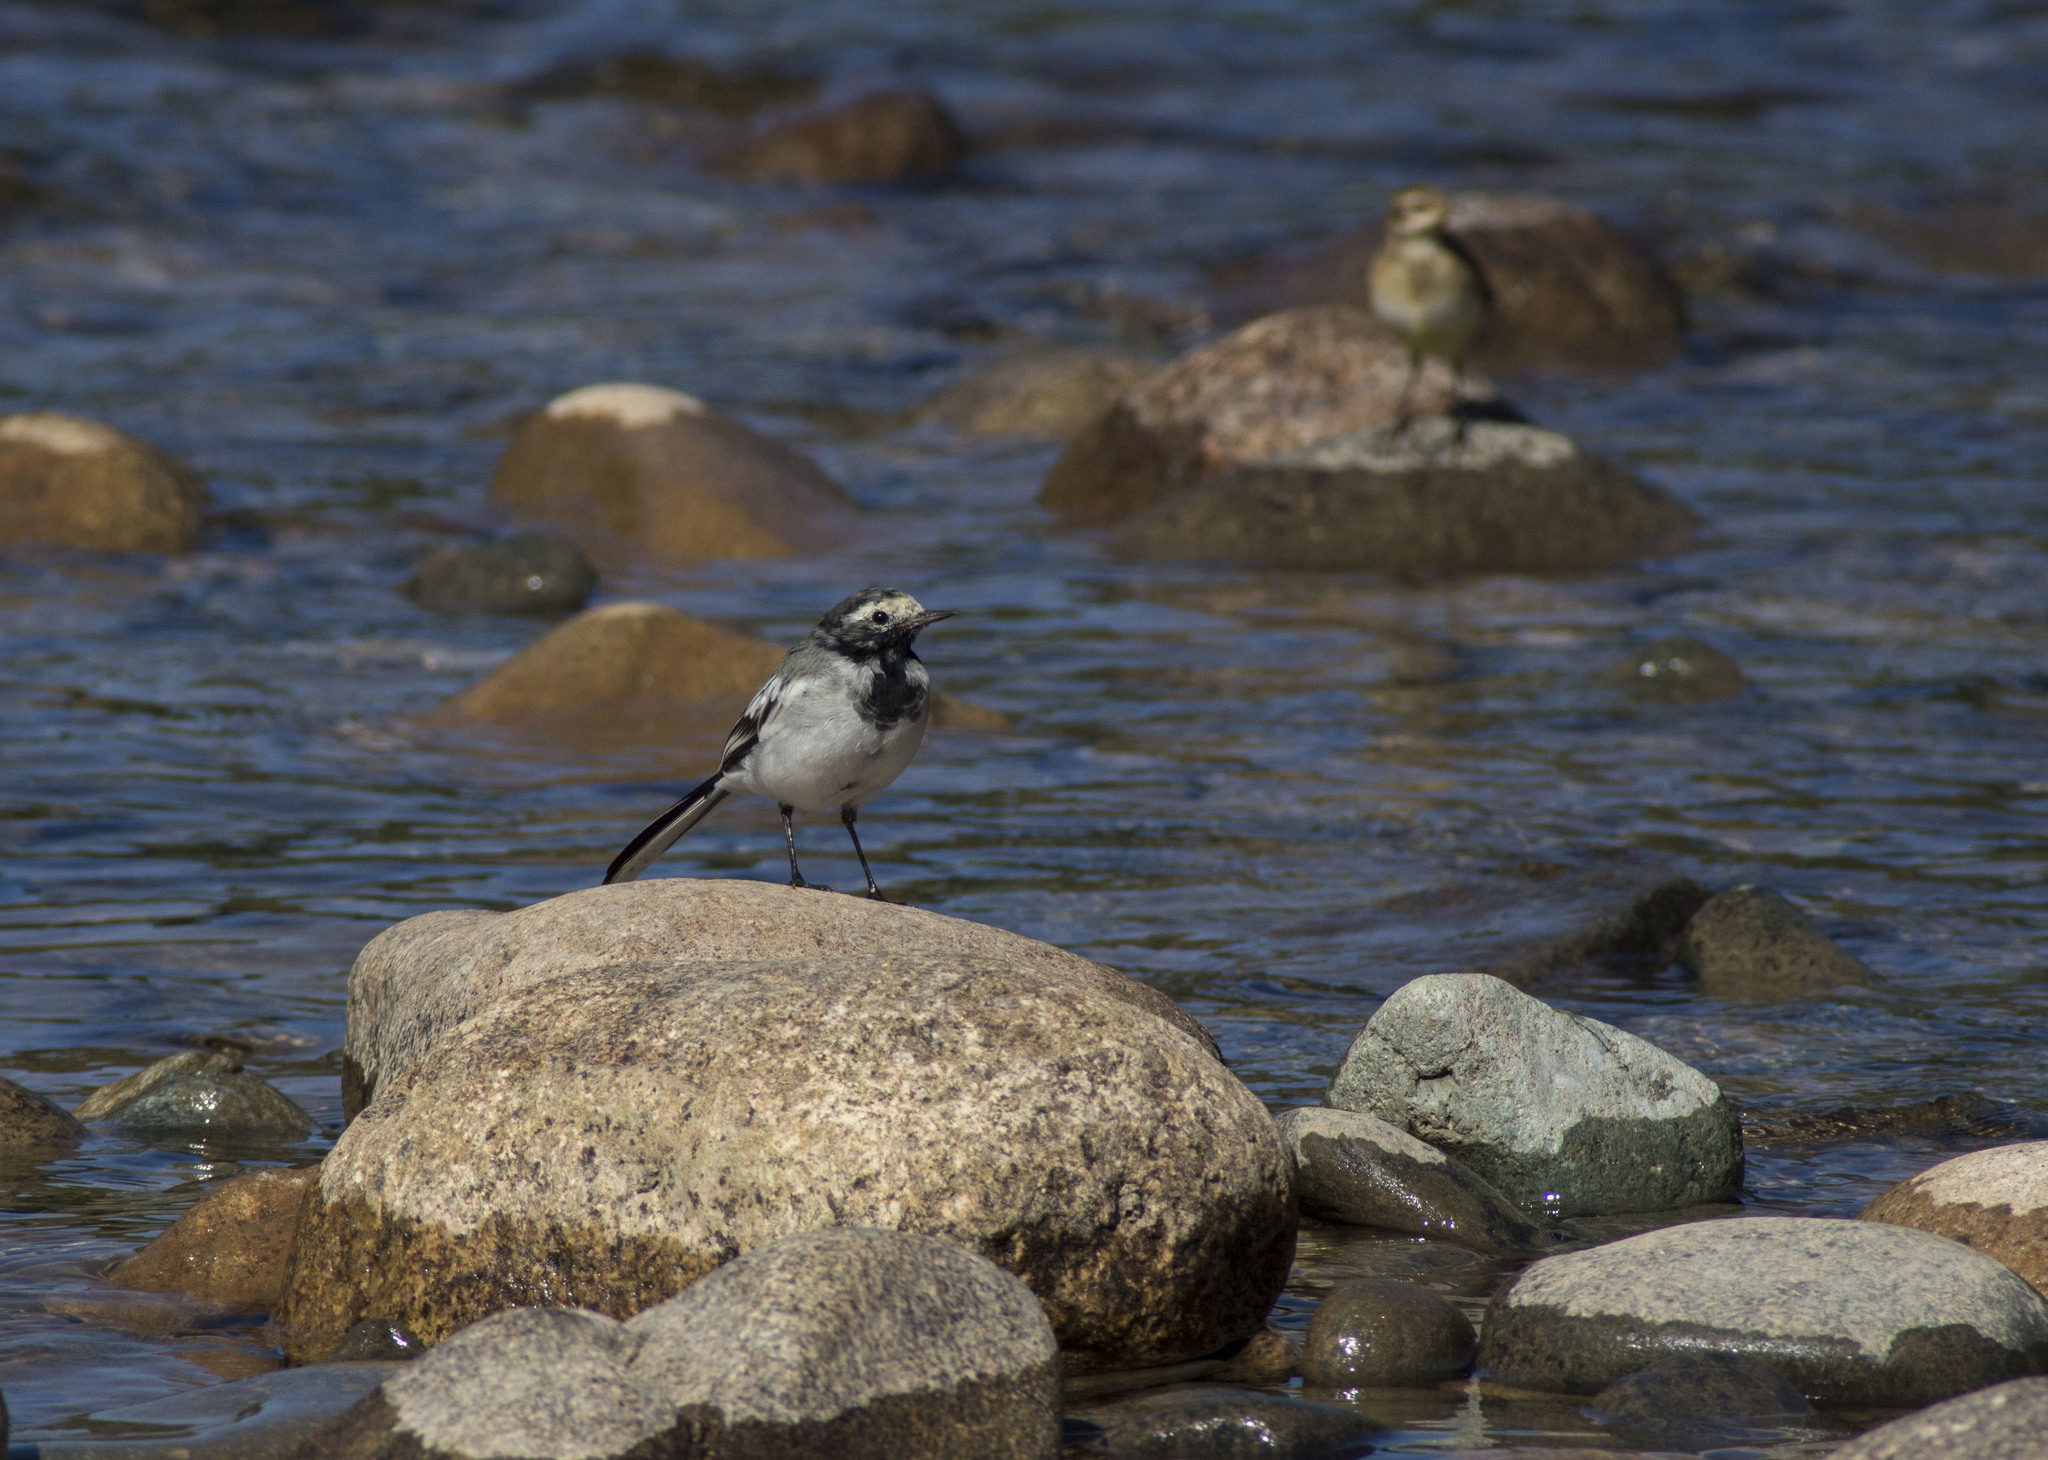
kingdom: Animalia
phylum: Chordata
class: Aves
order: Passeriformes
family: Motacillidae
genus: Motacilla
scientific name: Motacilla alba
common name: White wagtail
